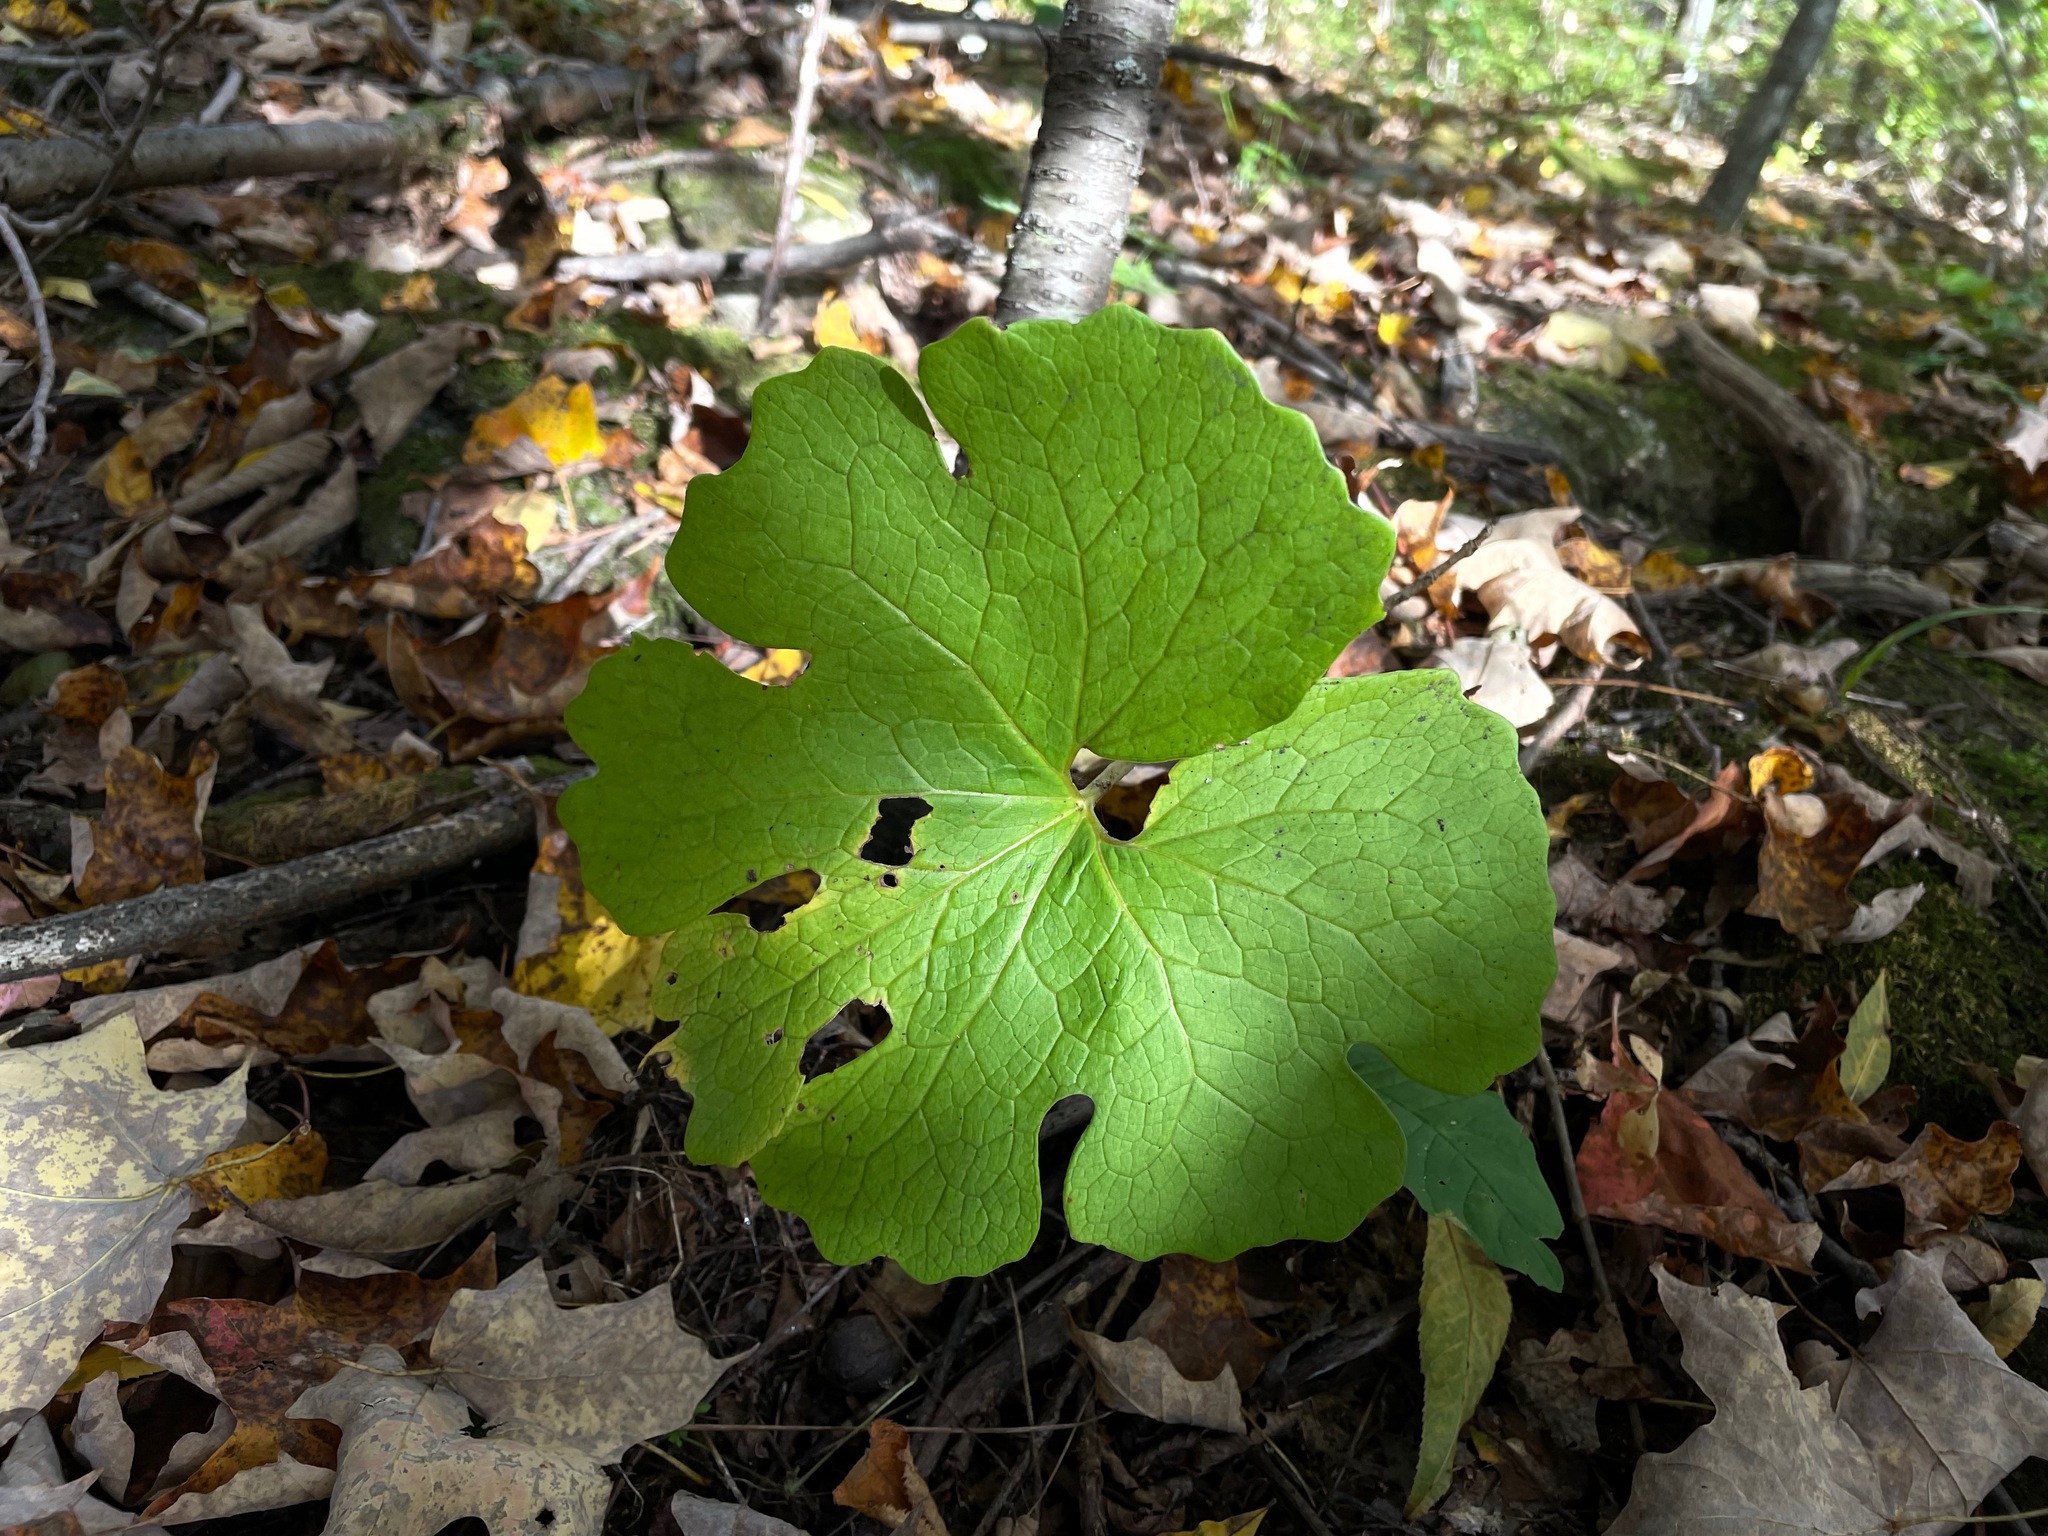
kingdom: Plantae
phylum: Tracheophyta
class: Magnoliopsida
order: Ranunculales
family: Papaveraceae
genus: Sanguinaria
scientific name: Sanguinaria canadensis
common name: Bloodroot
